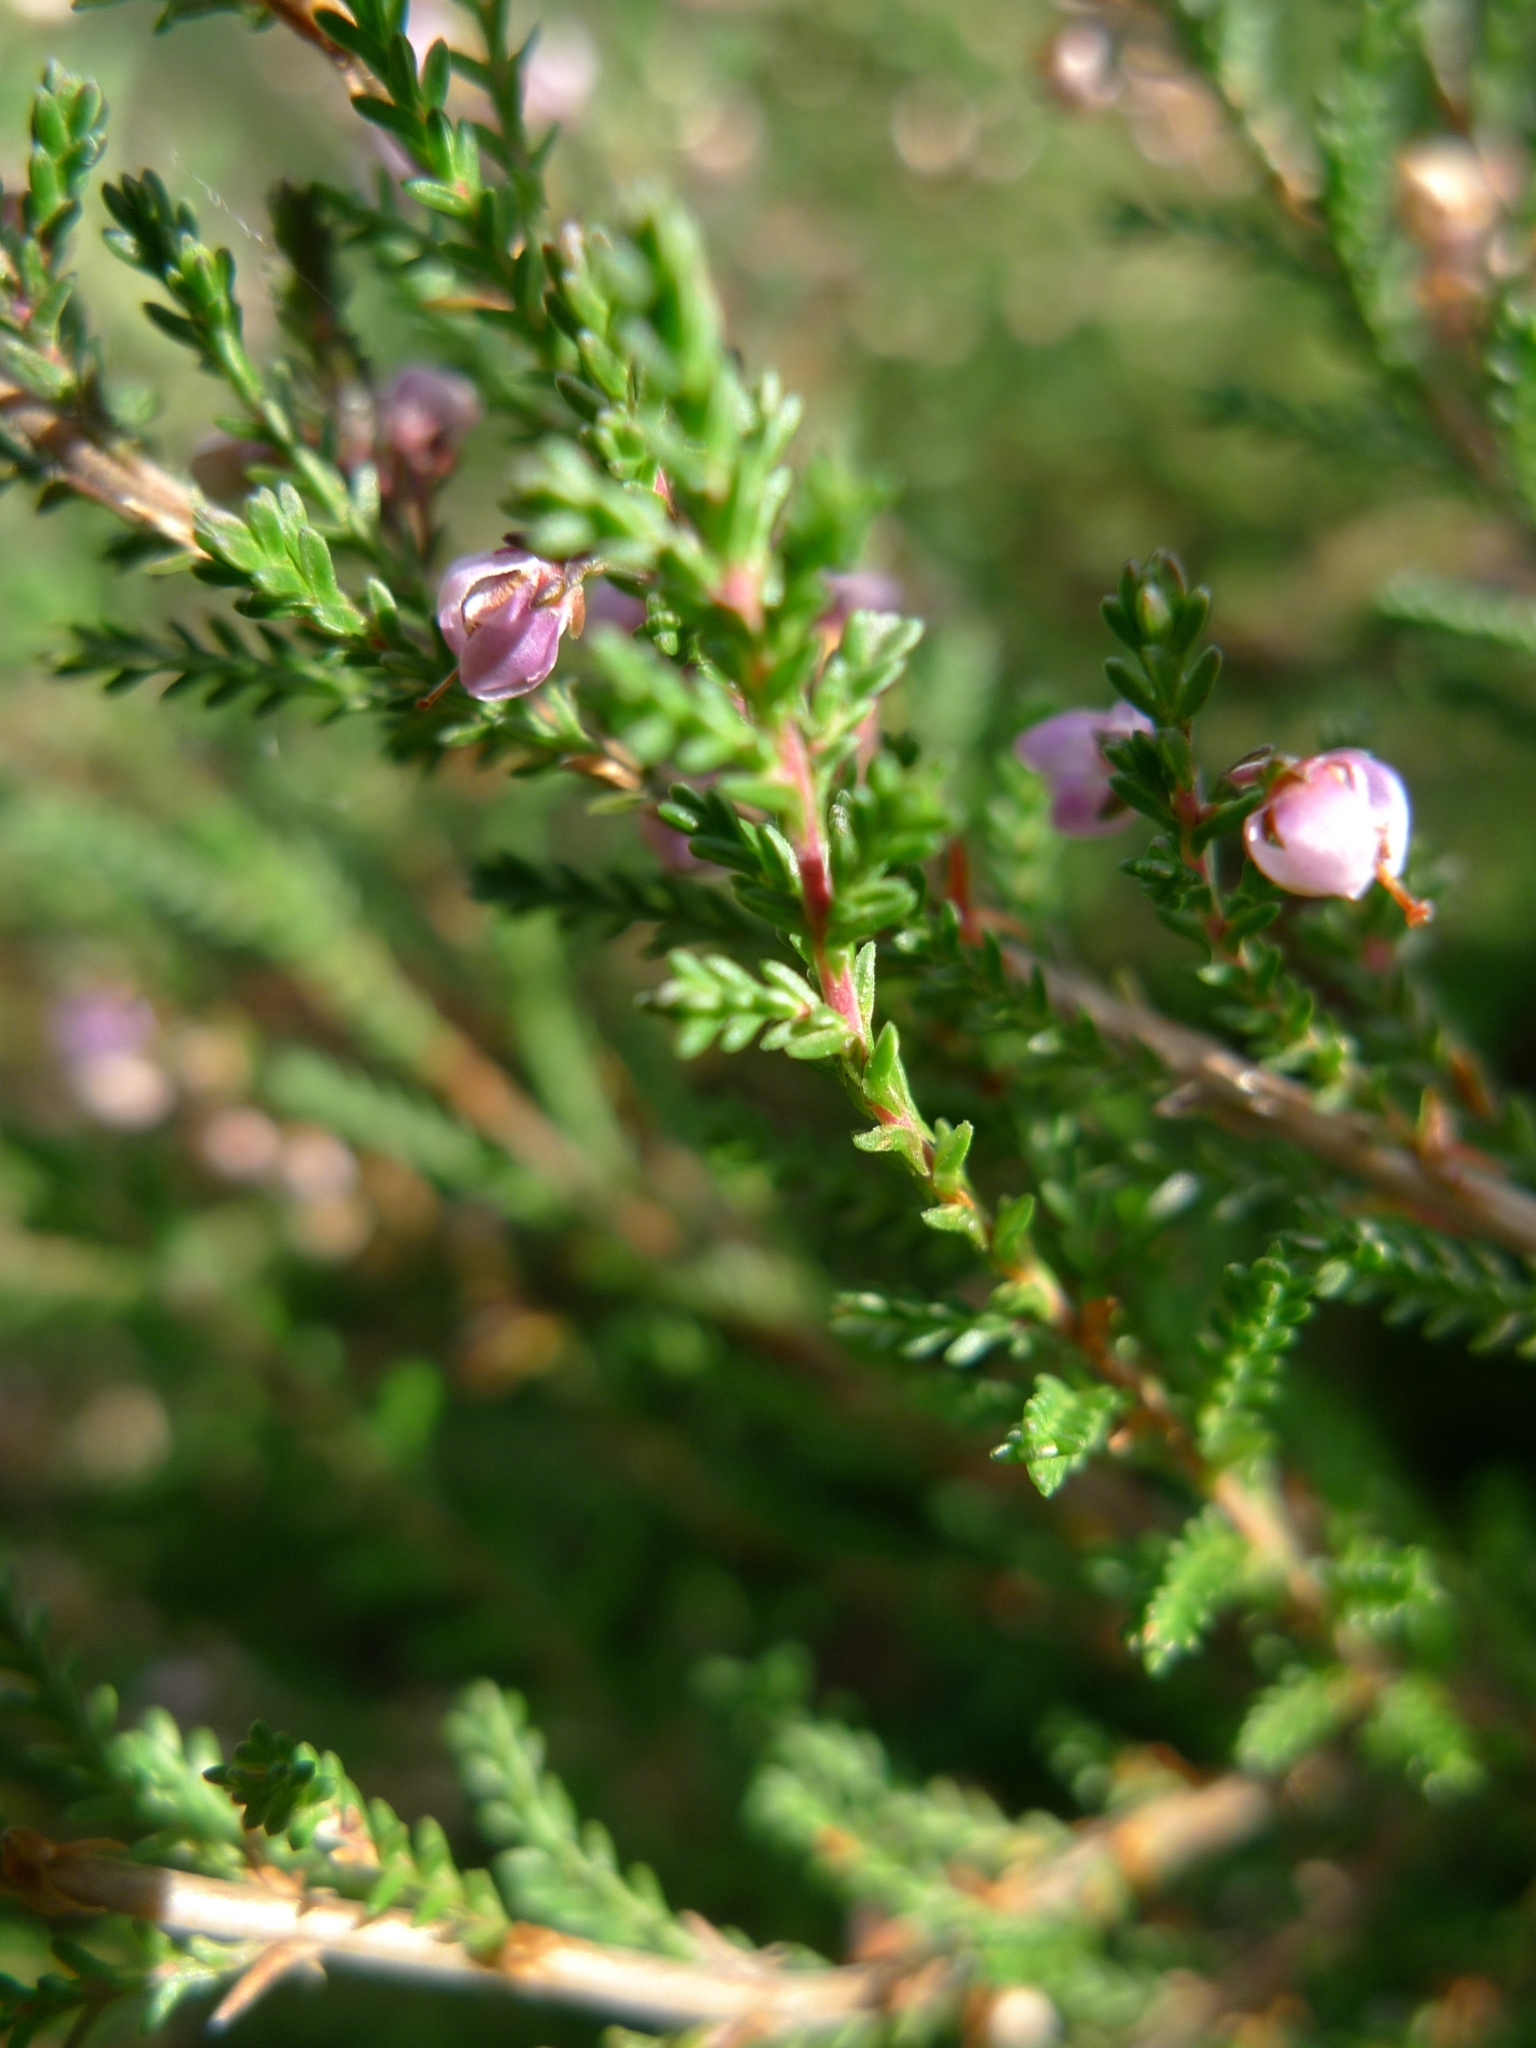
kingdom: Plantae
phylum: Tracheophyta
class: Magnoliopsida
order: Ericales
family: Ericaceae
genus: Calluna
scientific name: Calluna vulgaris
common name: Heather
